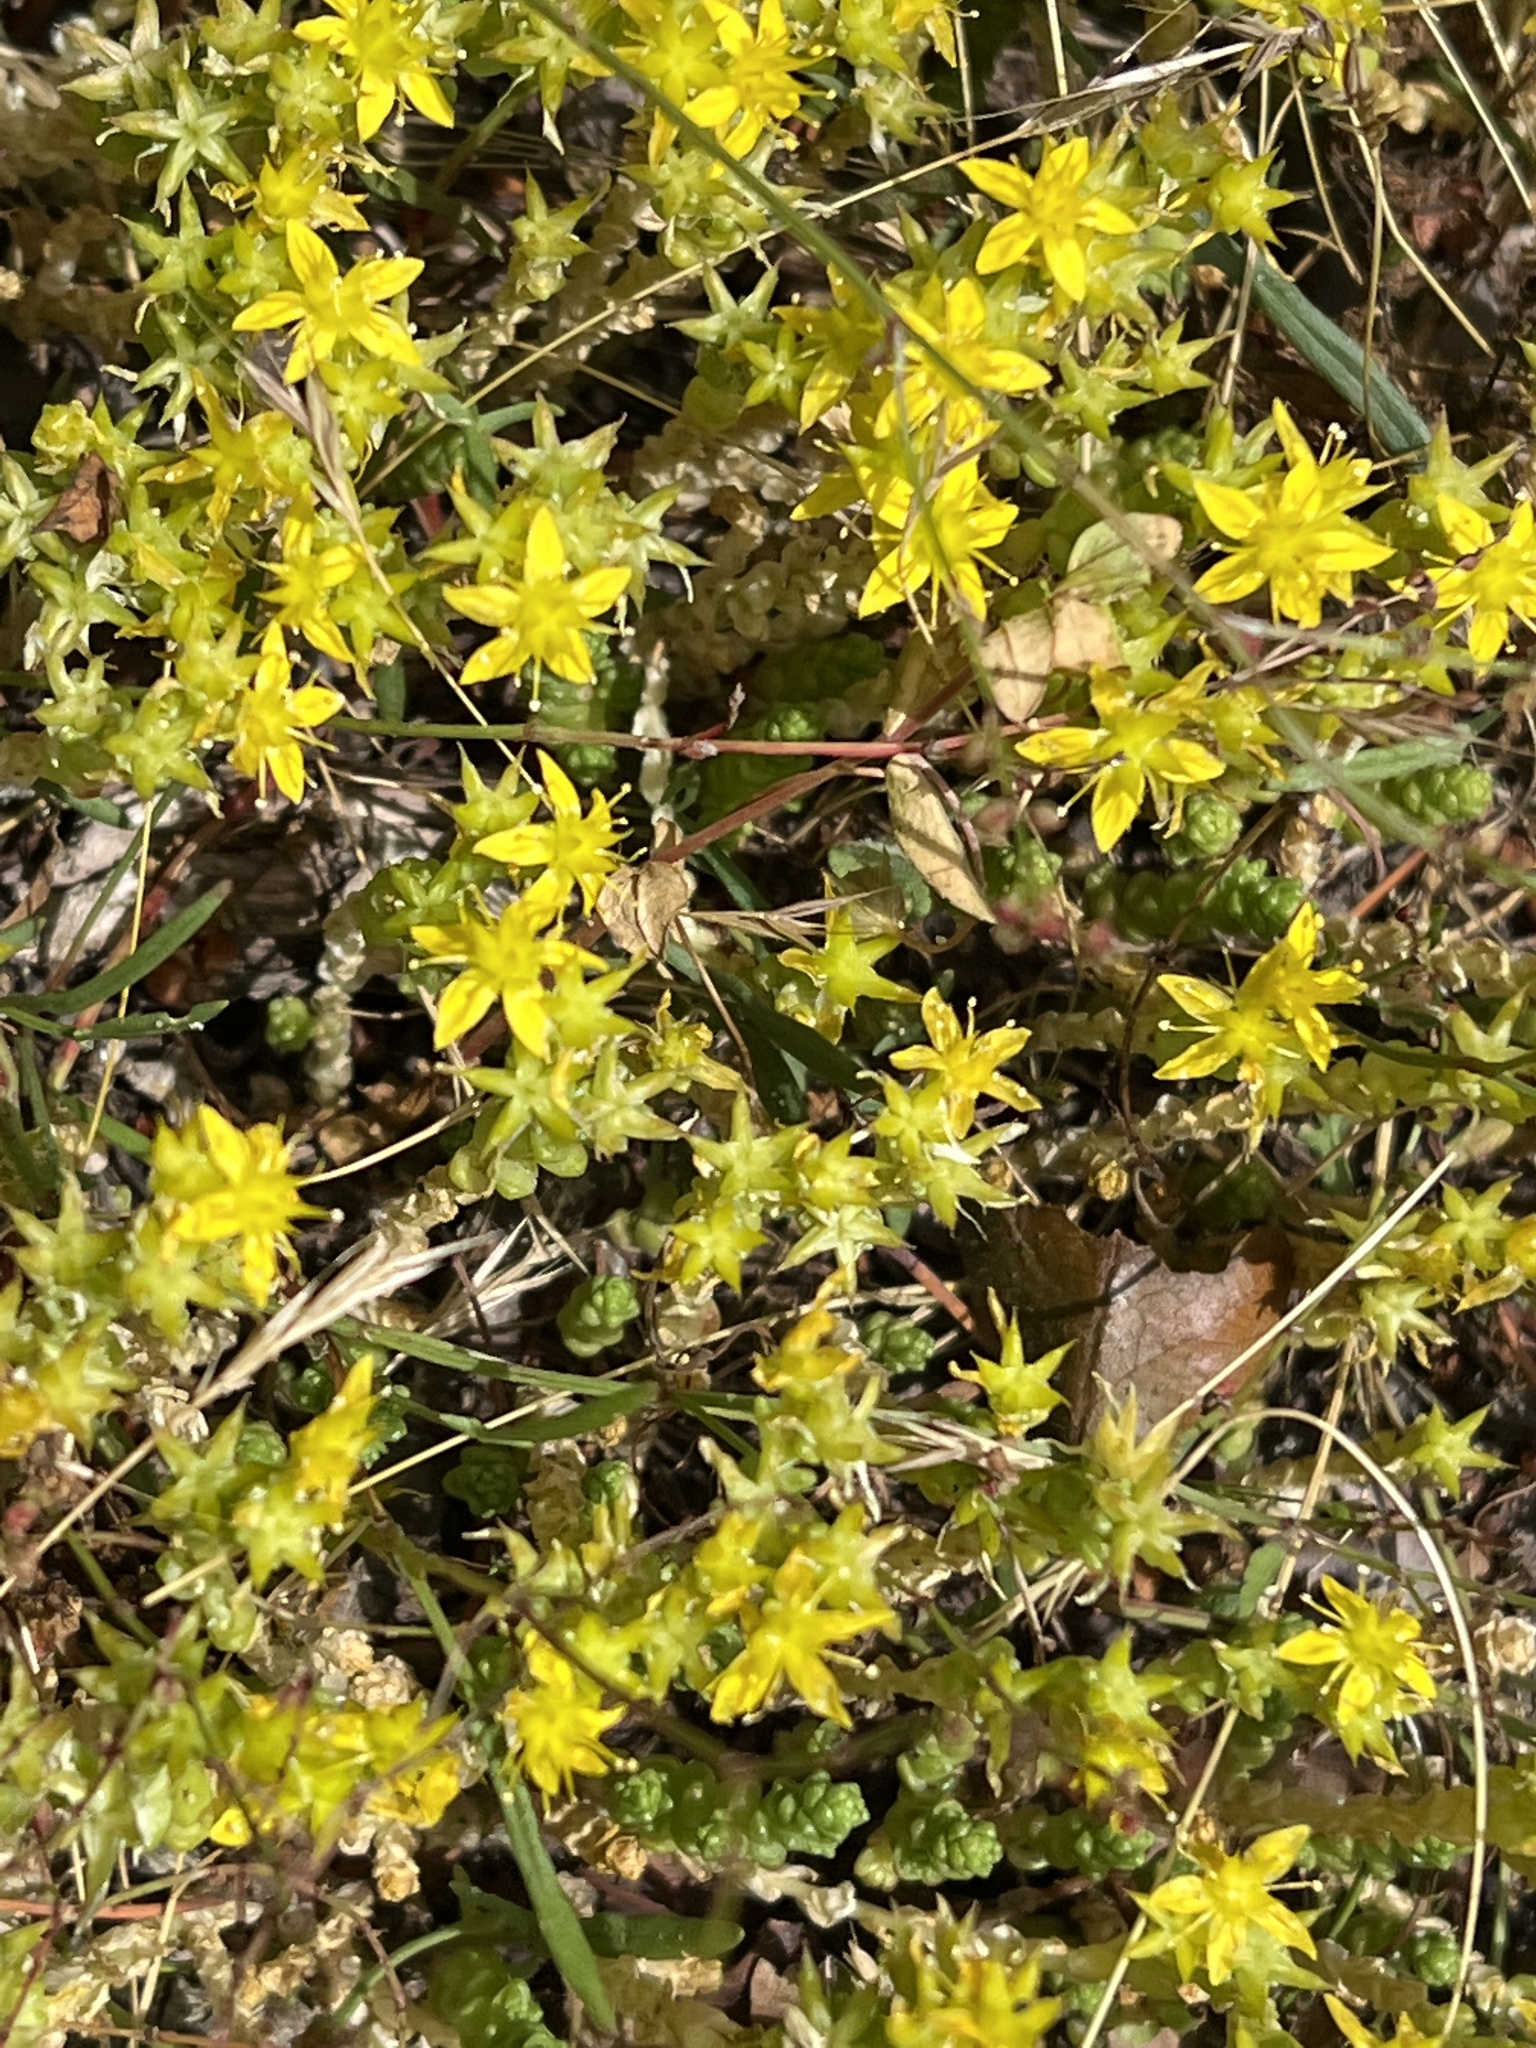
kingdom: Plantae
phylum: Tracheophyta
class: Magnoliopsida
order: Saxifragales
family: Crassulaceae
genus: Sedum
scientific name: Sedum acre
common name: Biting stonecrop
